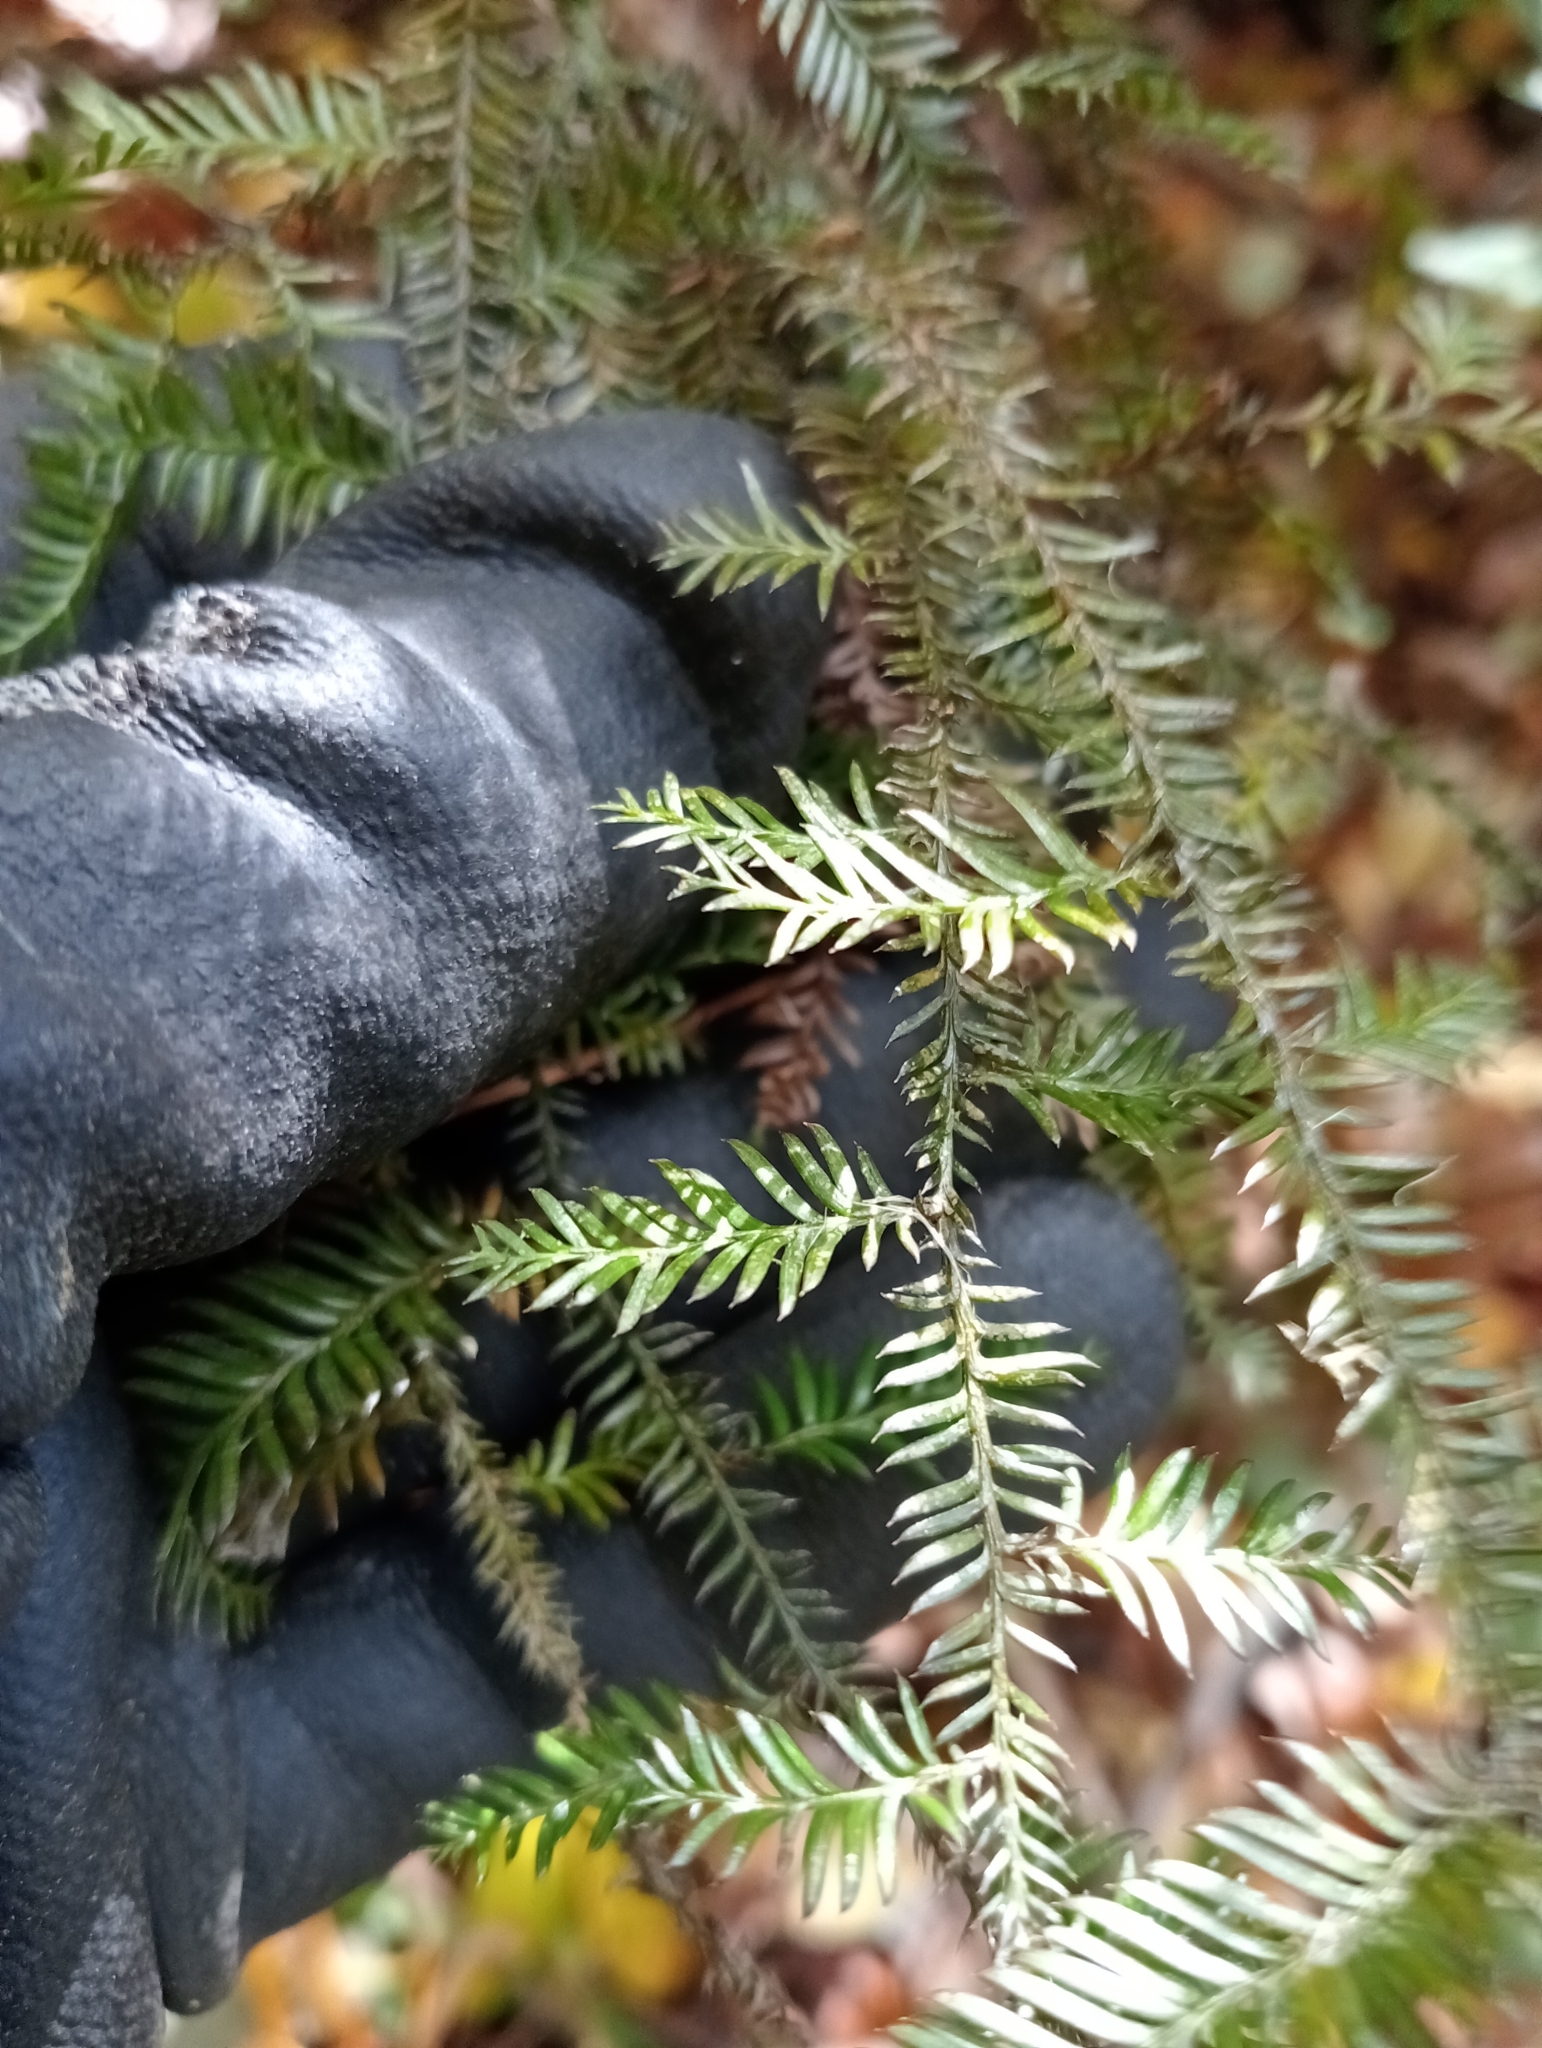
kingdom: Plantae
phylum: Tracheophyta
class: Pinopsida
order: Pinales
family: Podocarpaceae
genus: Dacrycarpus
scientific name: Dacrycarpus dacrydioides
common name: White pine
